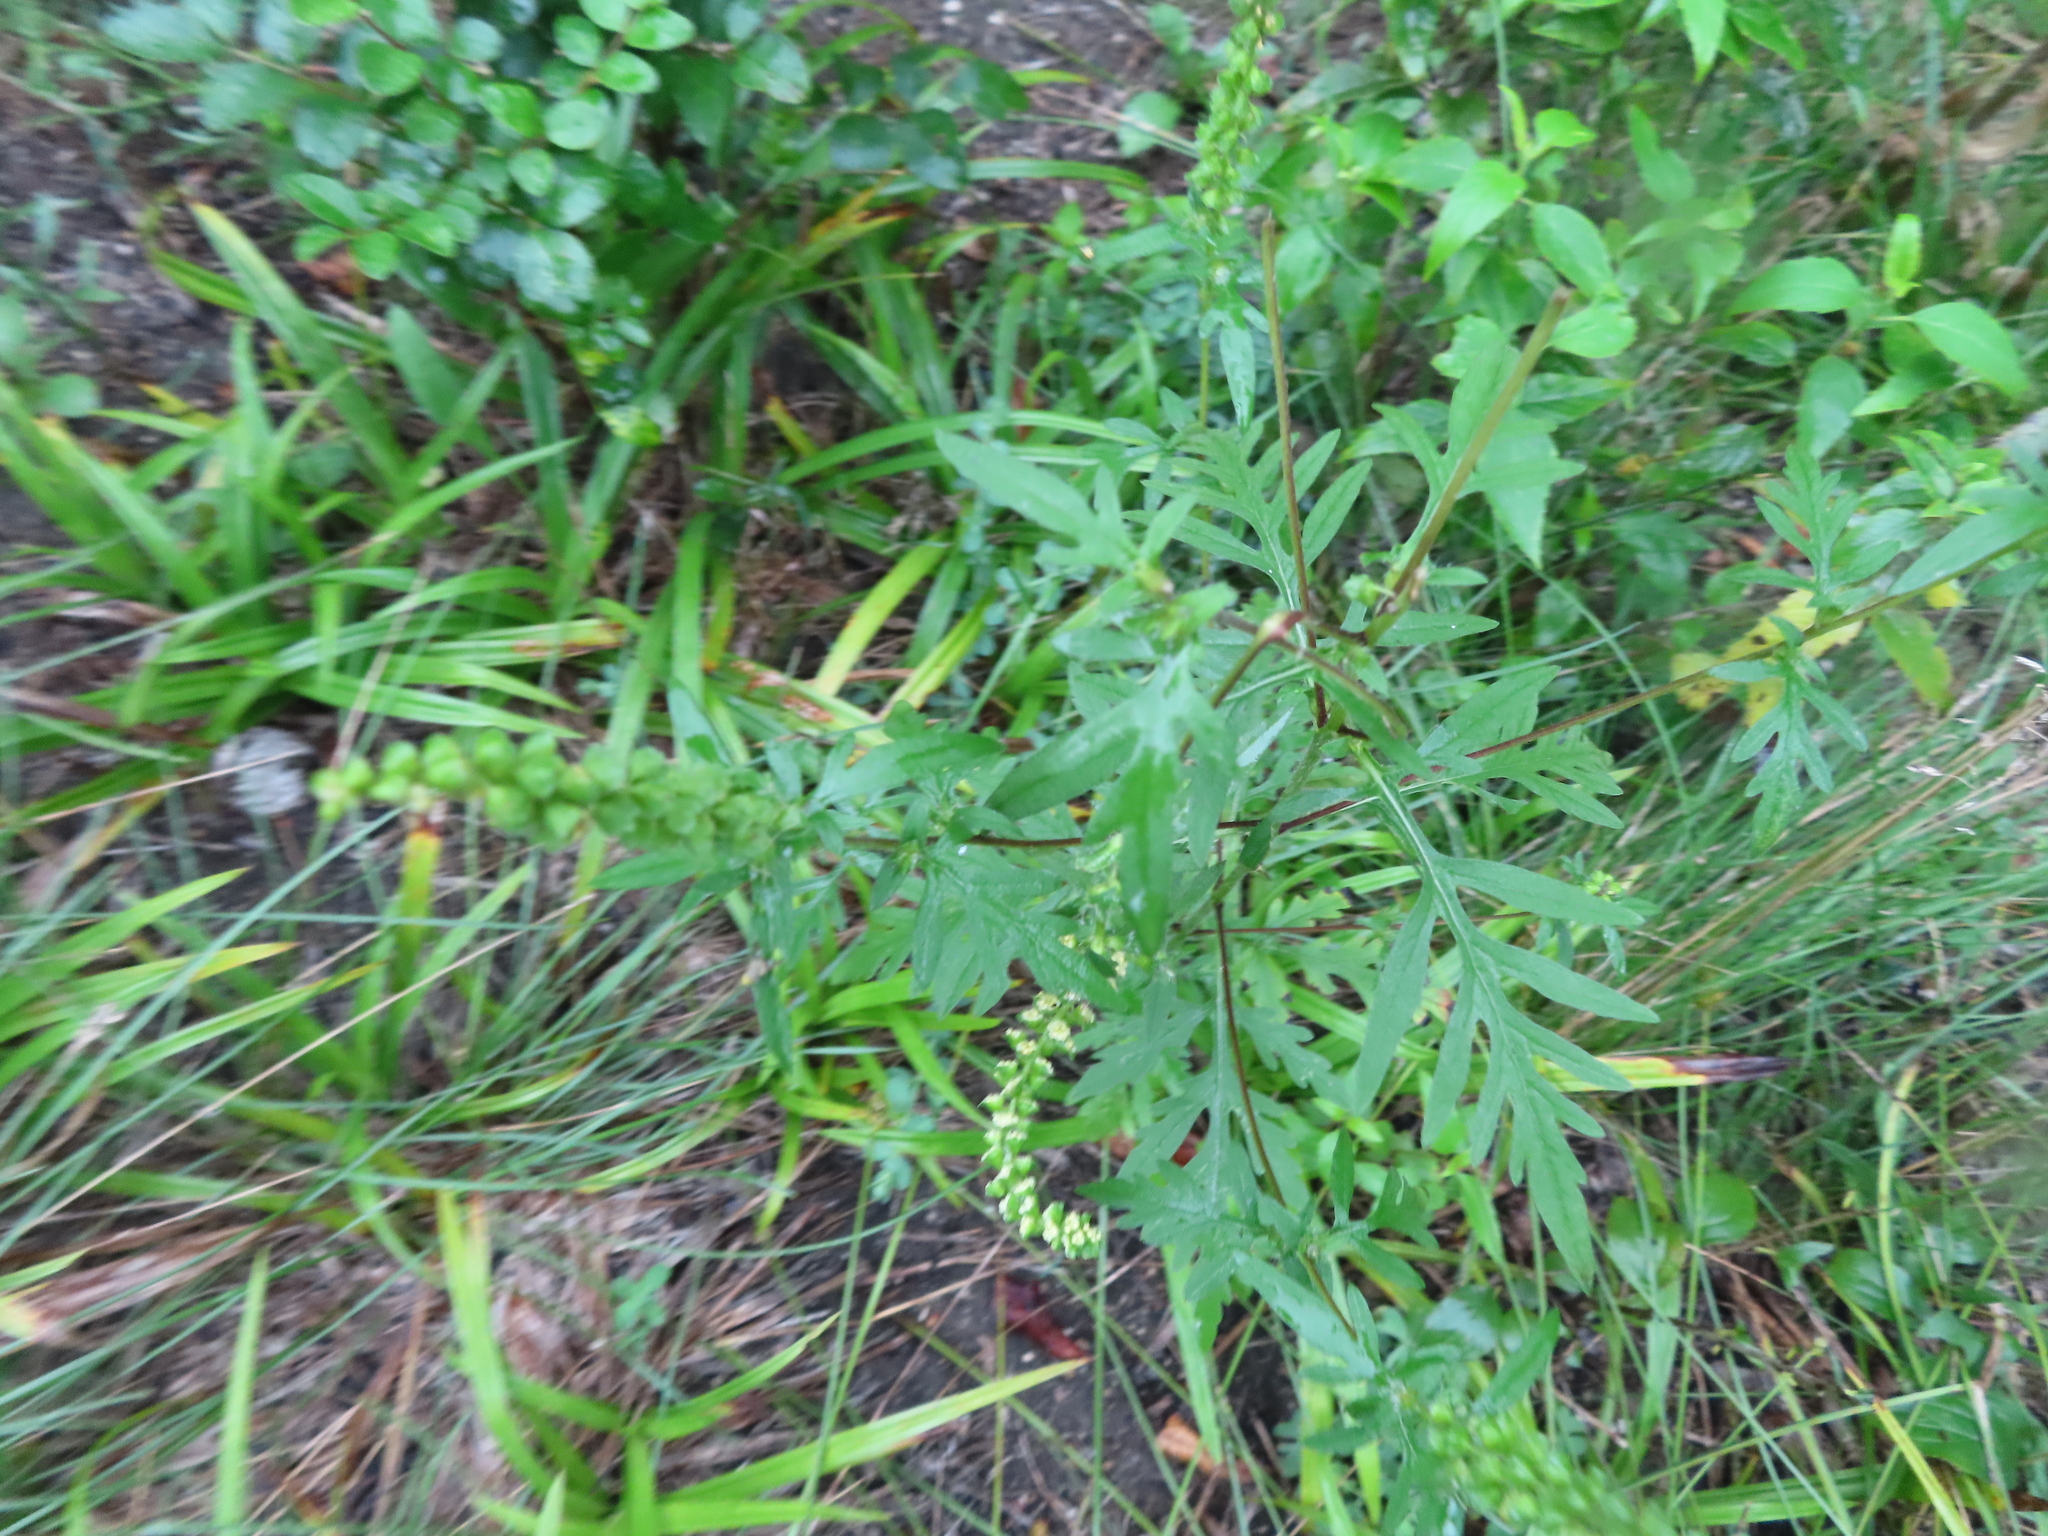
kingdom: Plantae
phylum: Tracheophyta
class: Magnoliopsida
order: Asterales
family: Asteraceae
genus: Ambrosia
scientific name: Ambrosia artemisiifolia
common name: Annual ragweed
